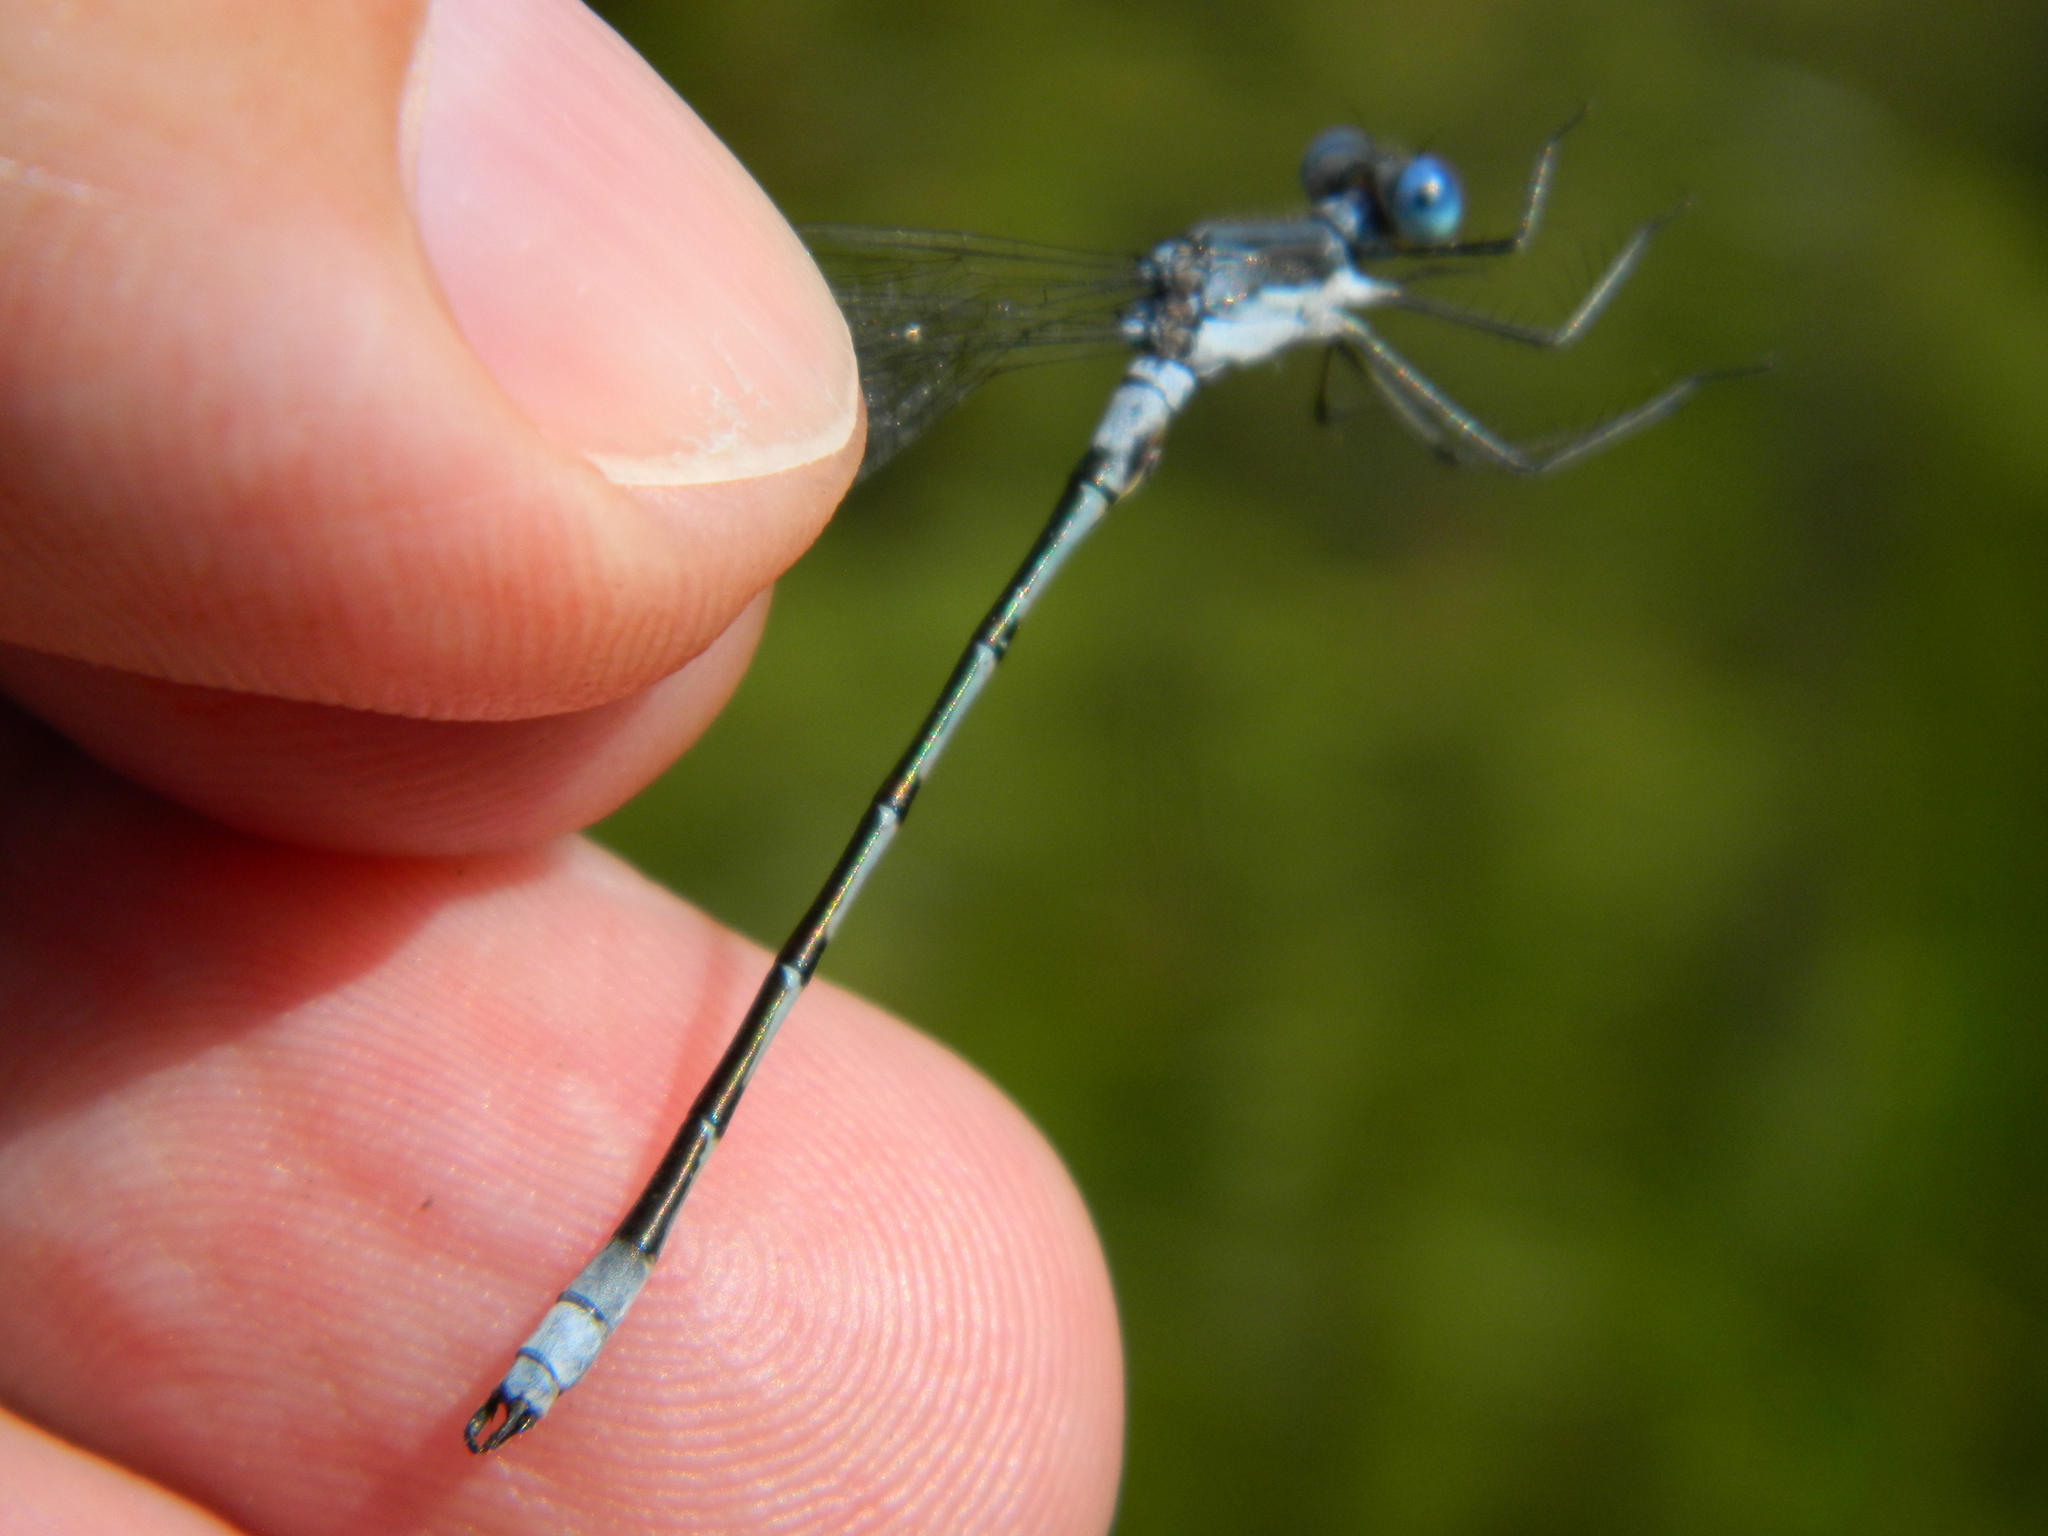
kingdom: Animalia
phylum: Arthropoda
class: Insecta
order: Odonata
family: Lestidae
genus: Lestes
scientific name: Lestes forcipatus
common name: Sweetflag spreadwing
